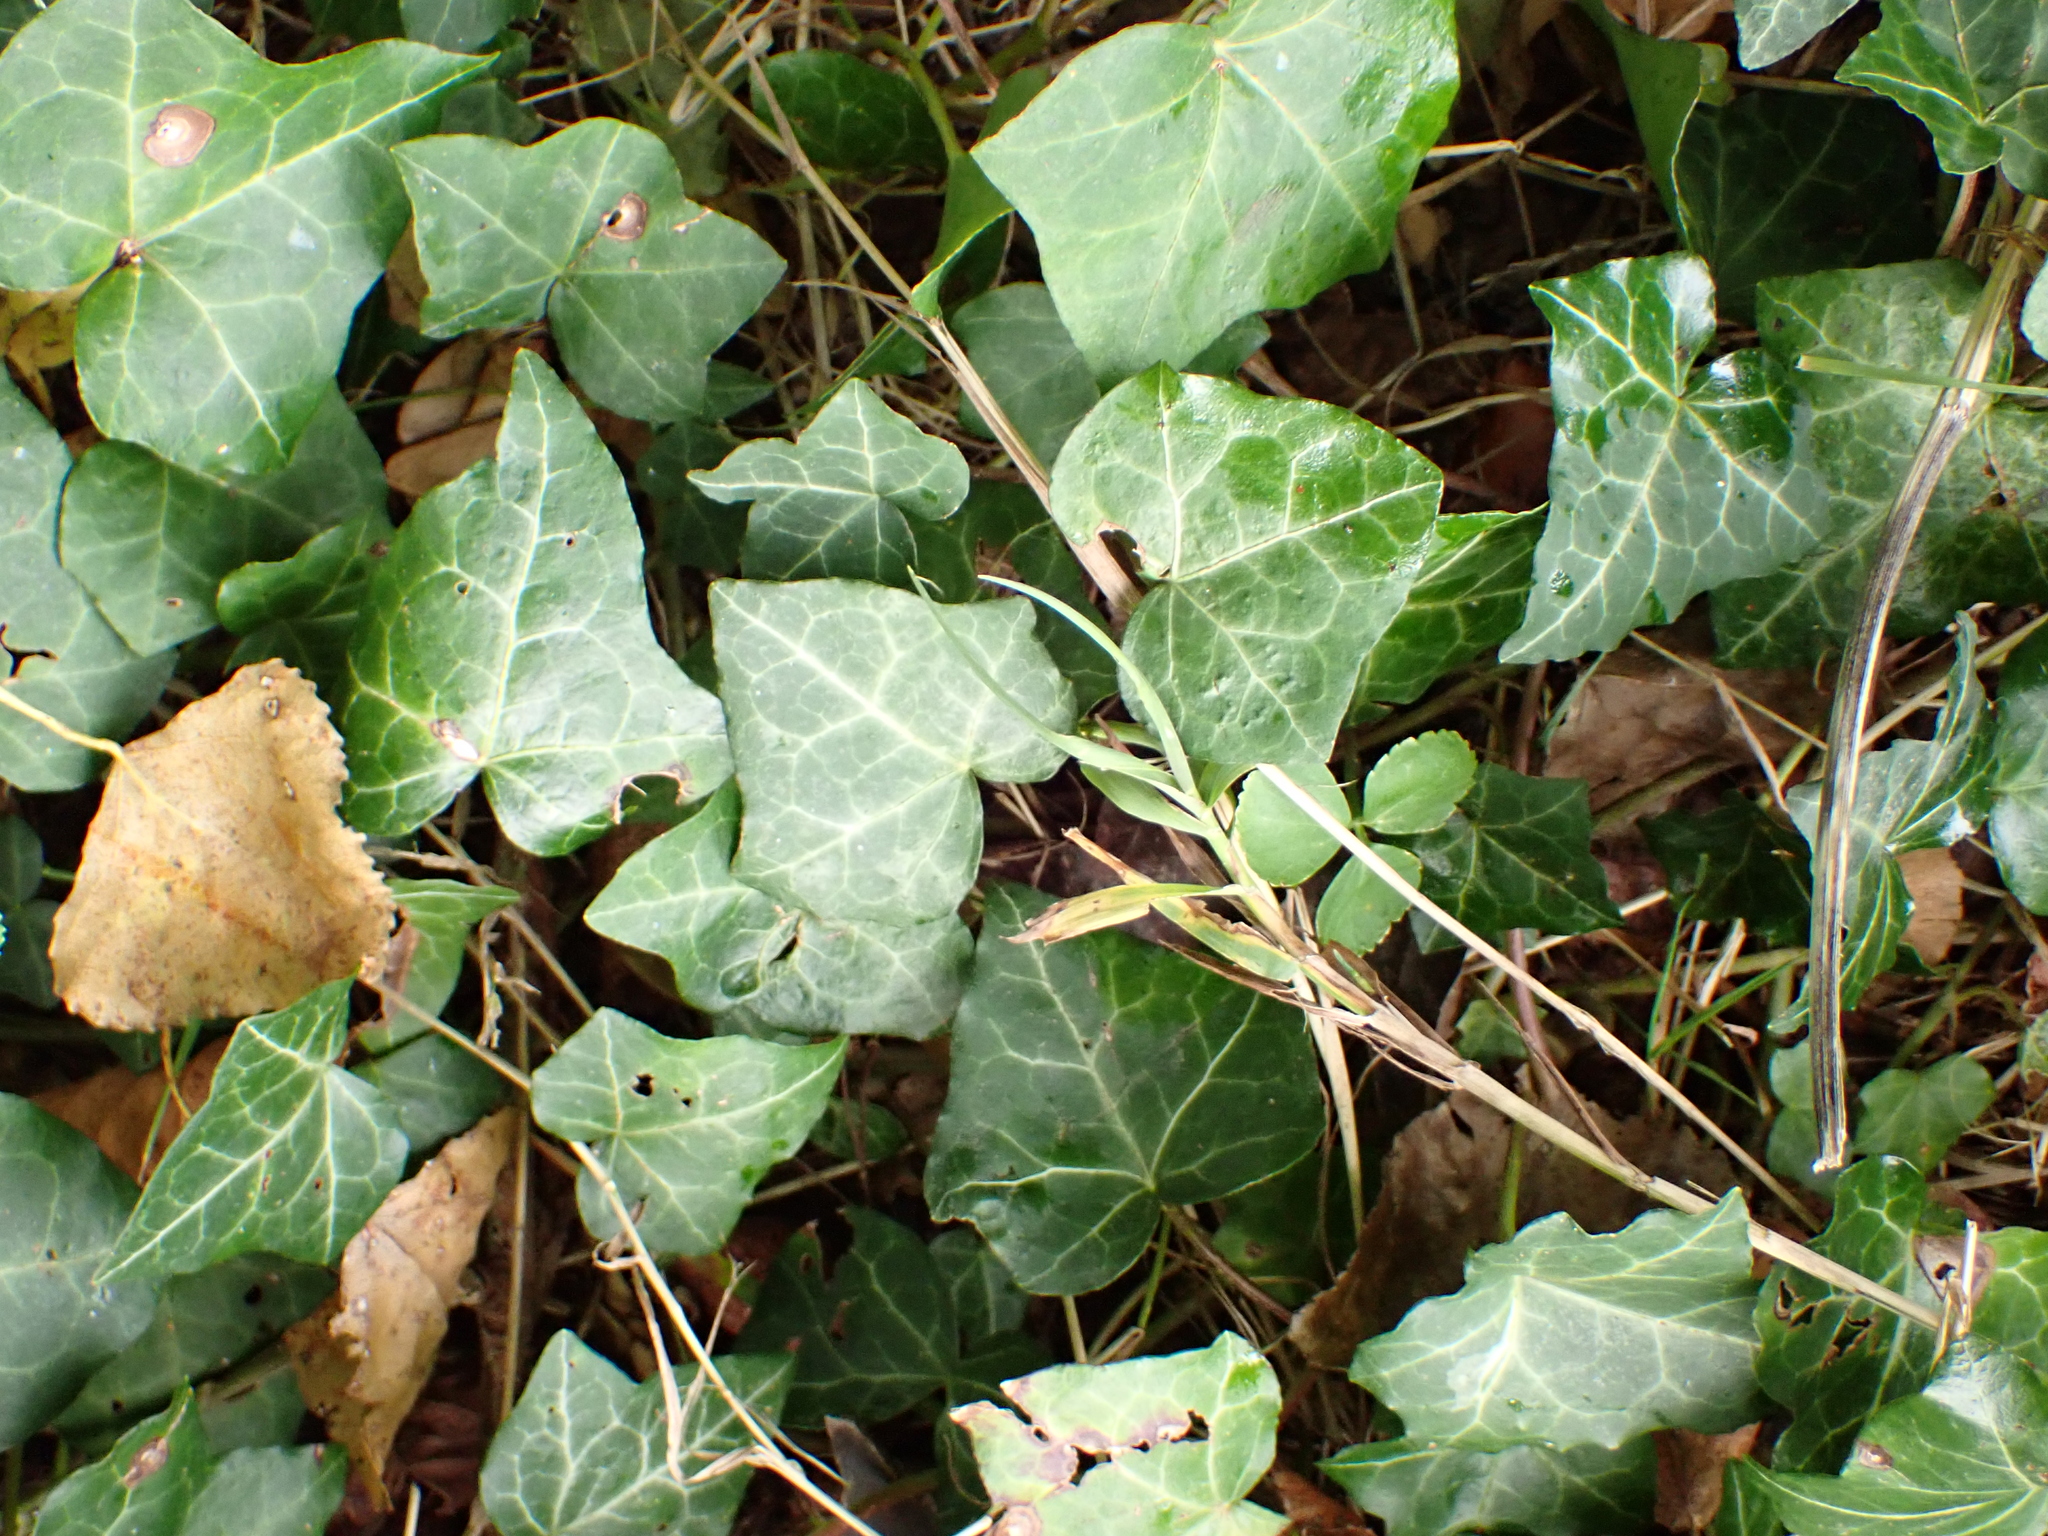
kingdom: Plantae
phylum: Tracheophyta
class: Magnoliopsida
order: Apiales
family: Araliaceae
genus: Hedera
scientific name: Hedera helix
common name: Ivy
